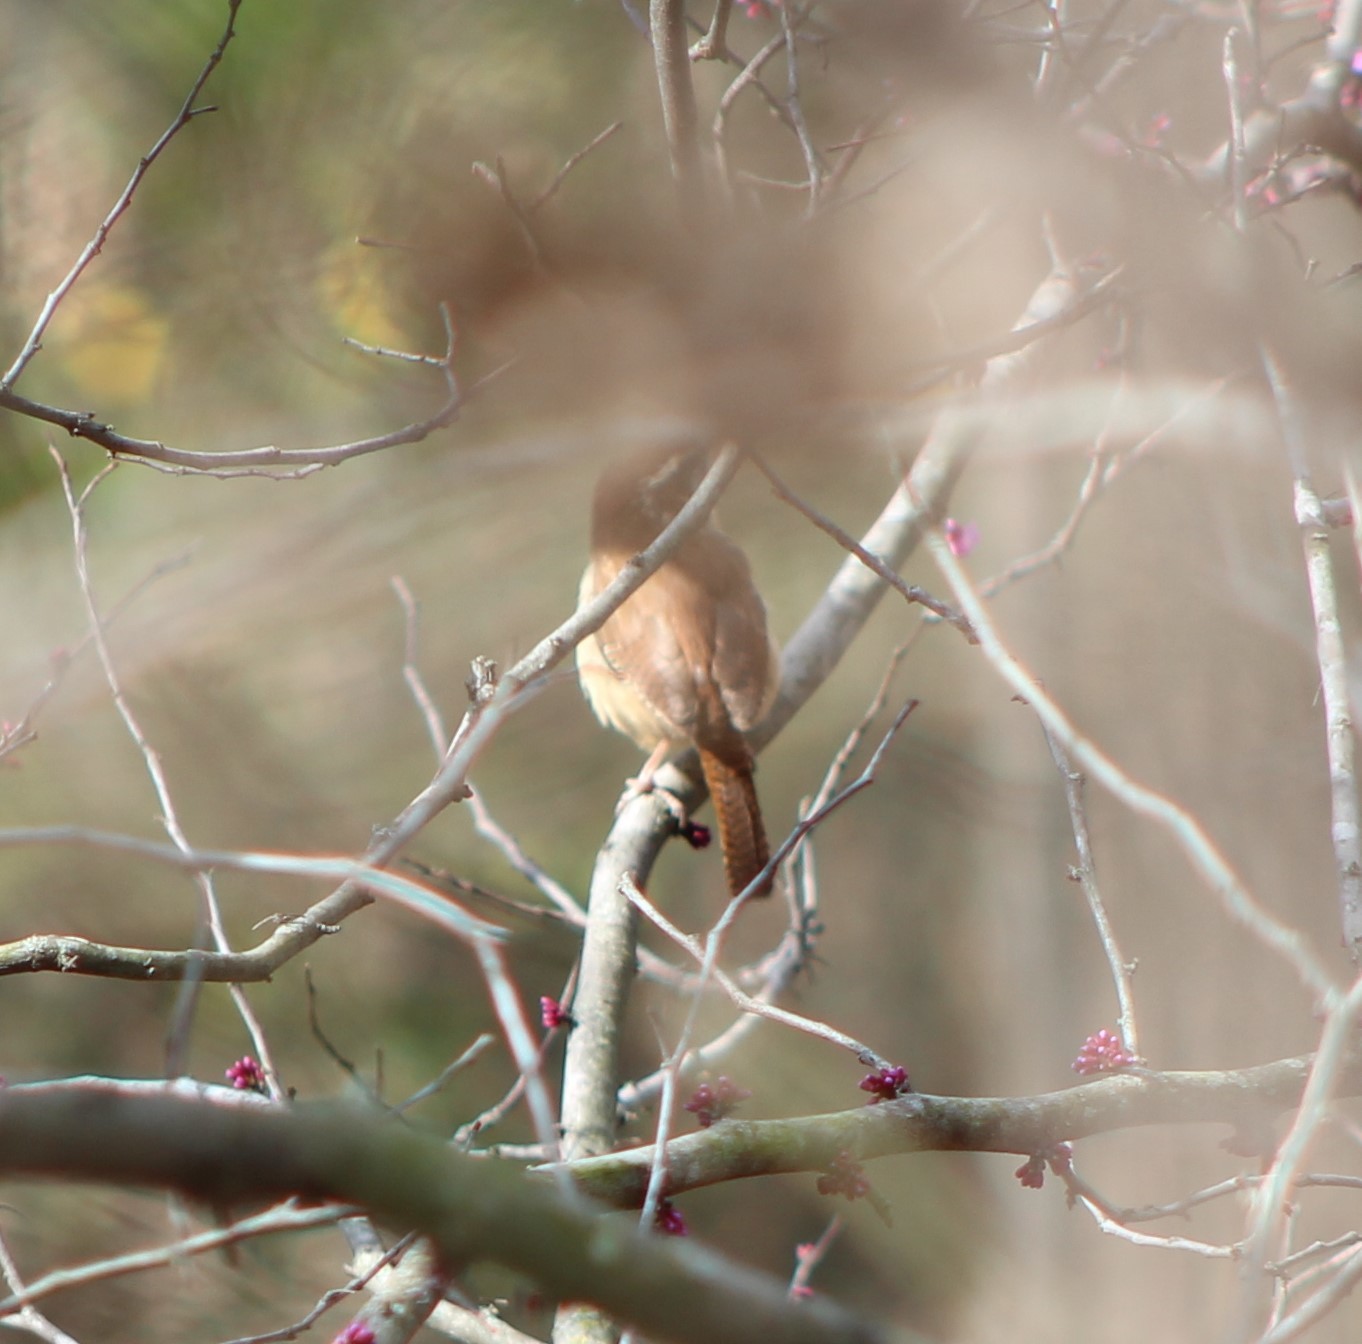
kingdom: Animalia
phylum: Chordata
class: Aves
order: Passeriformes
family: Troglodytidae
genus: Thryothorus
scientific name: Thryothorus ludovicianus
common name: Carolina wren
